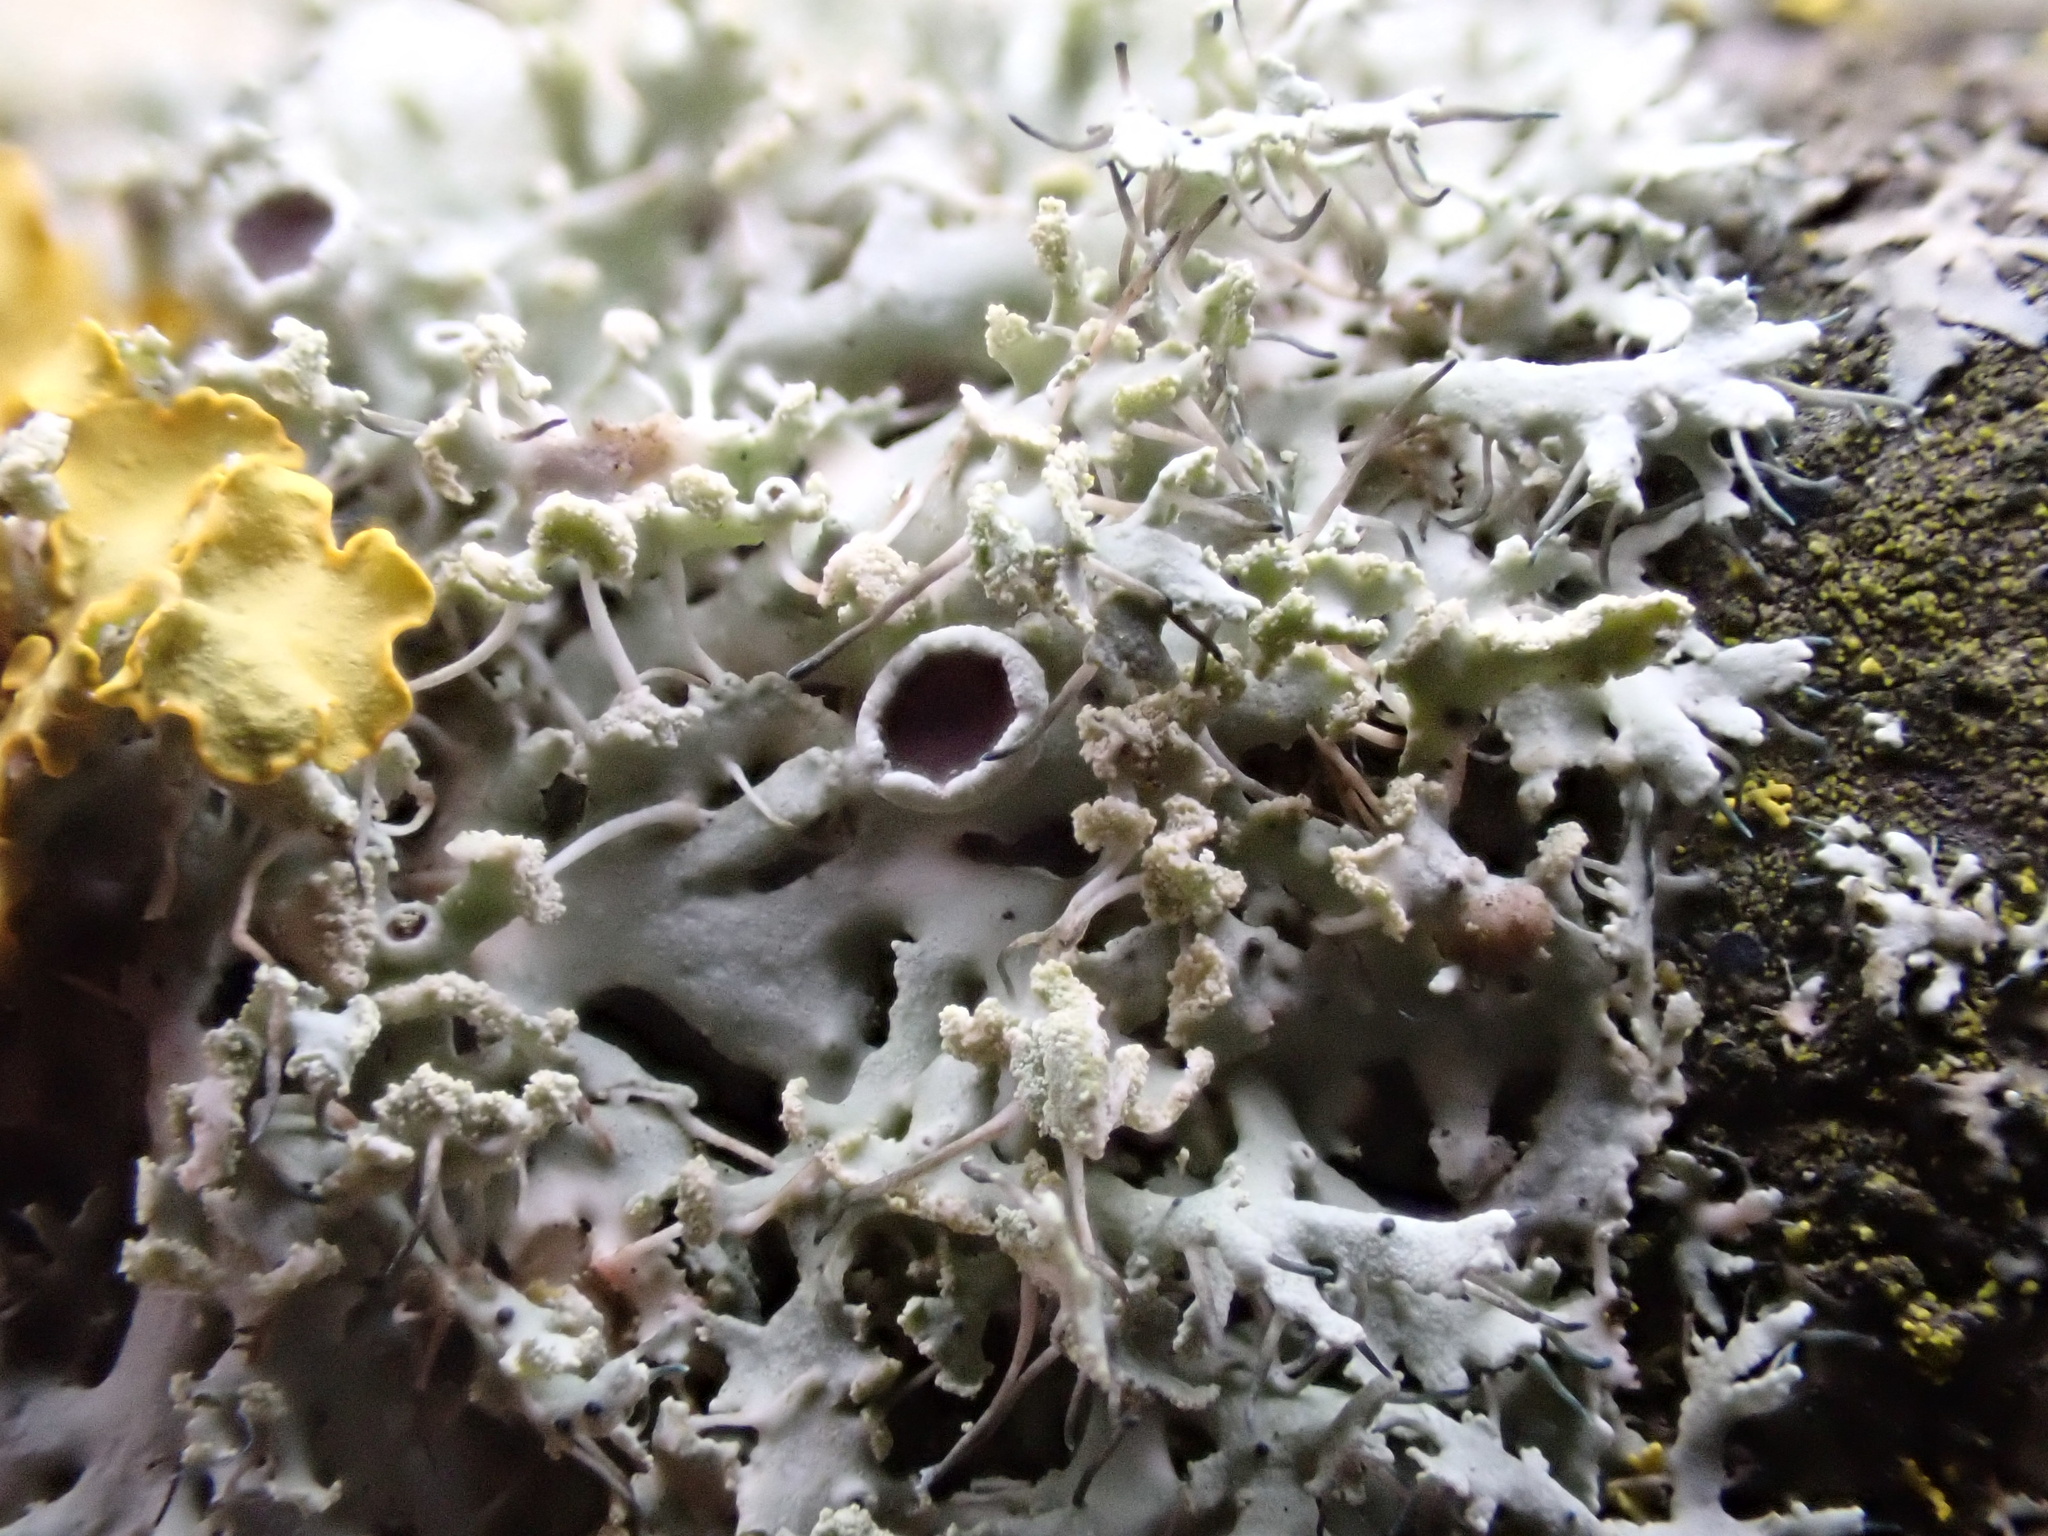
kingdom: Fungi
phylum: Ascomycota
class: Lecanoromycetes
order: Caliciales
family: Physciaceae
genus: Physcia
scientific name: Physcia tenella
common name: Fringed rosette lichen
